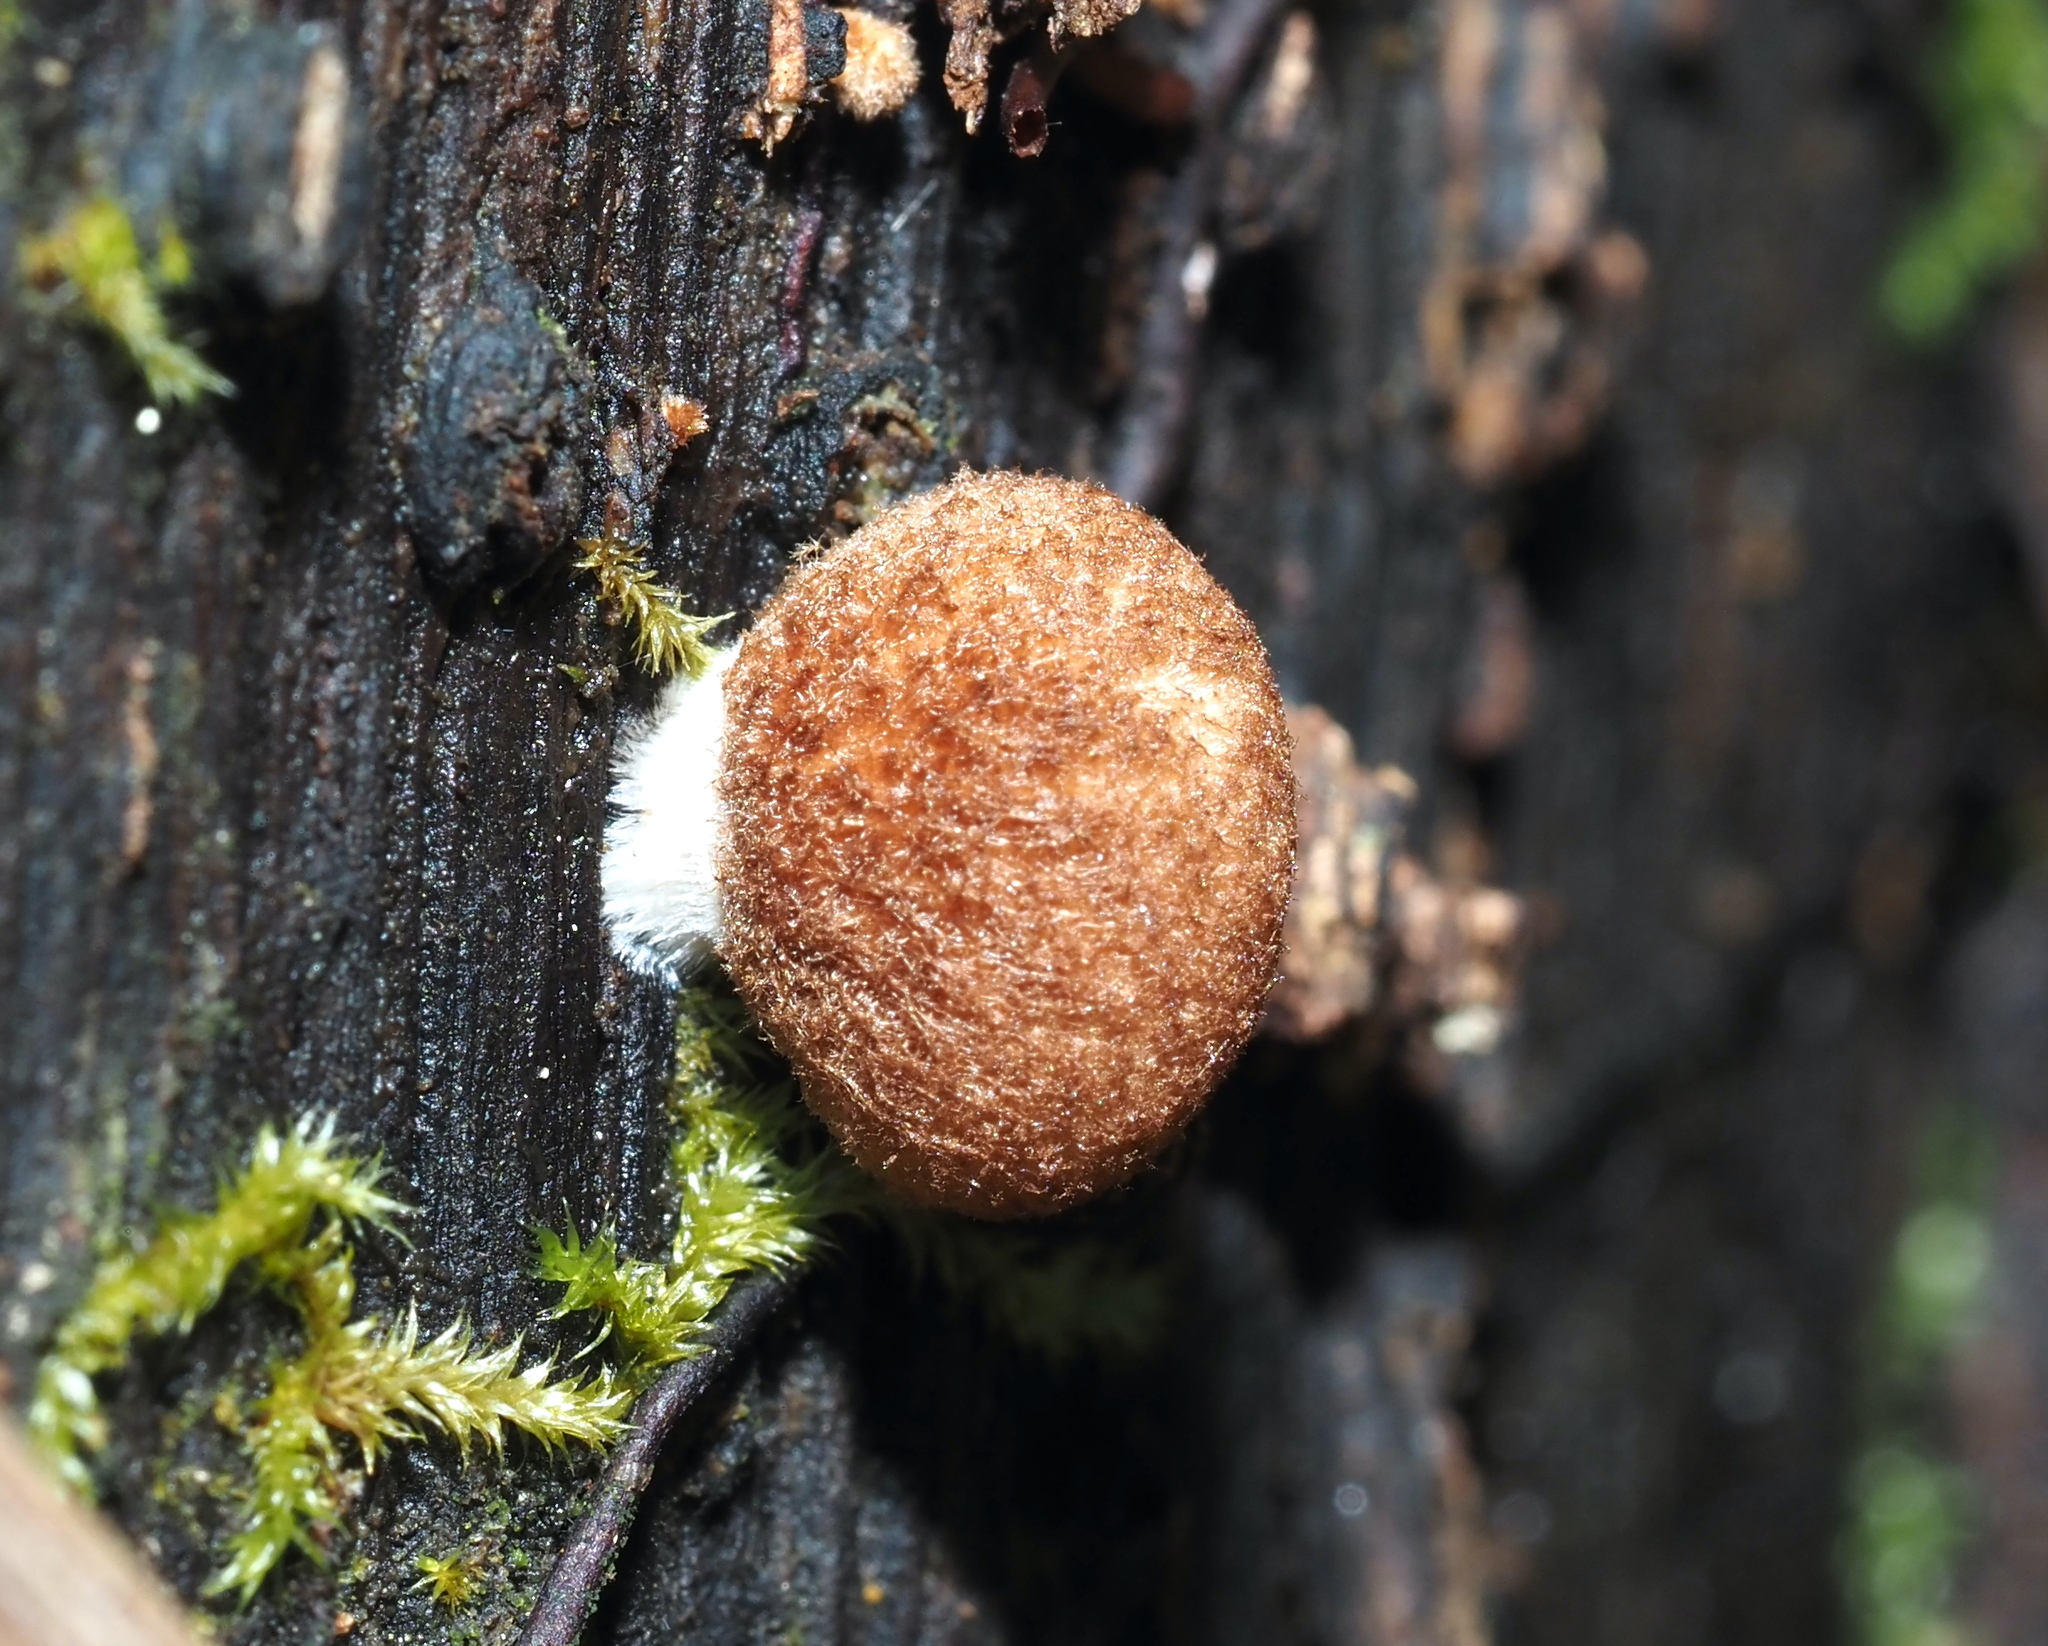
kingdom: Fungi
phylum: Basidiomycota
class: Agaricomycetes
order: Agaricales
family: Crepidotaceae
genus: Crepidotus
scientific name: Crepidotus crocophyllus
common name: Saffron oysterling
